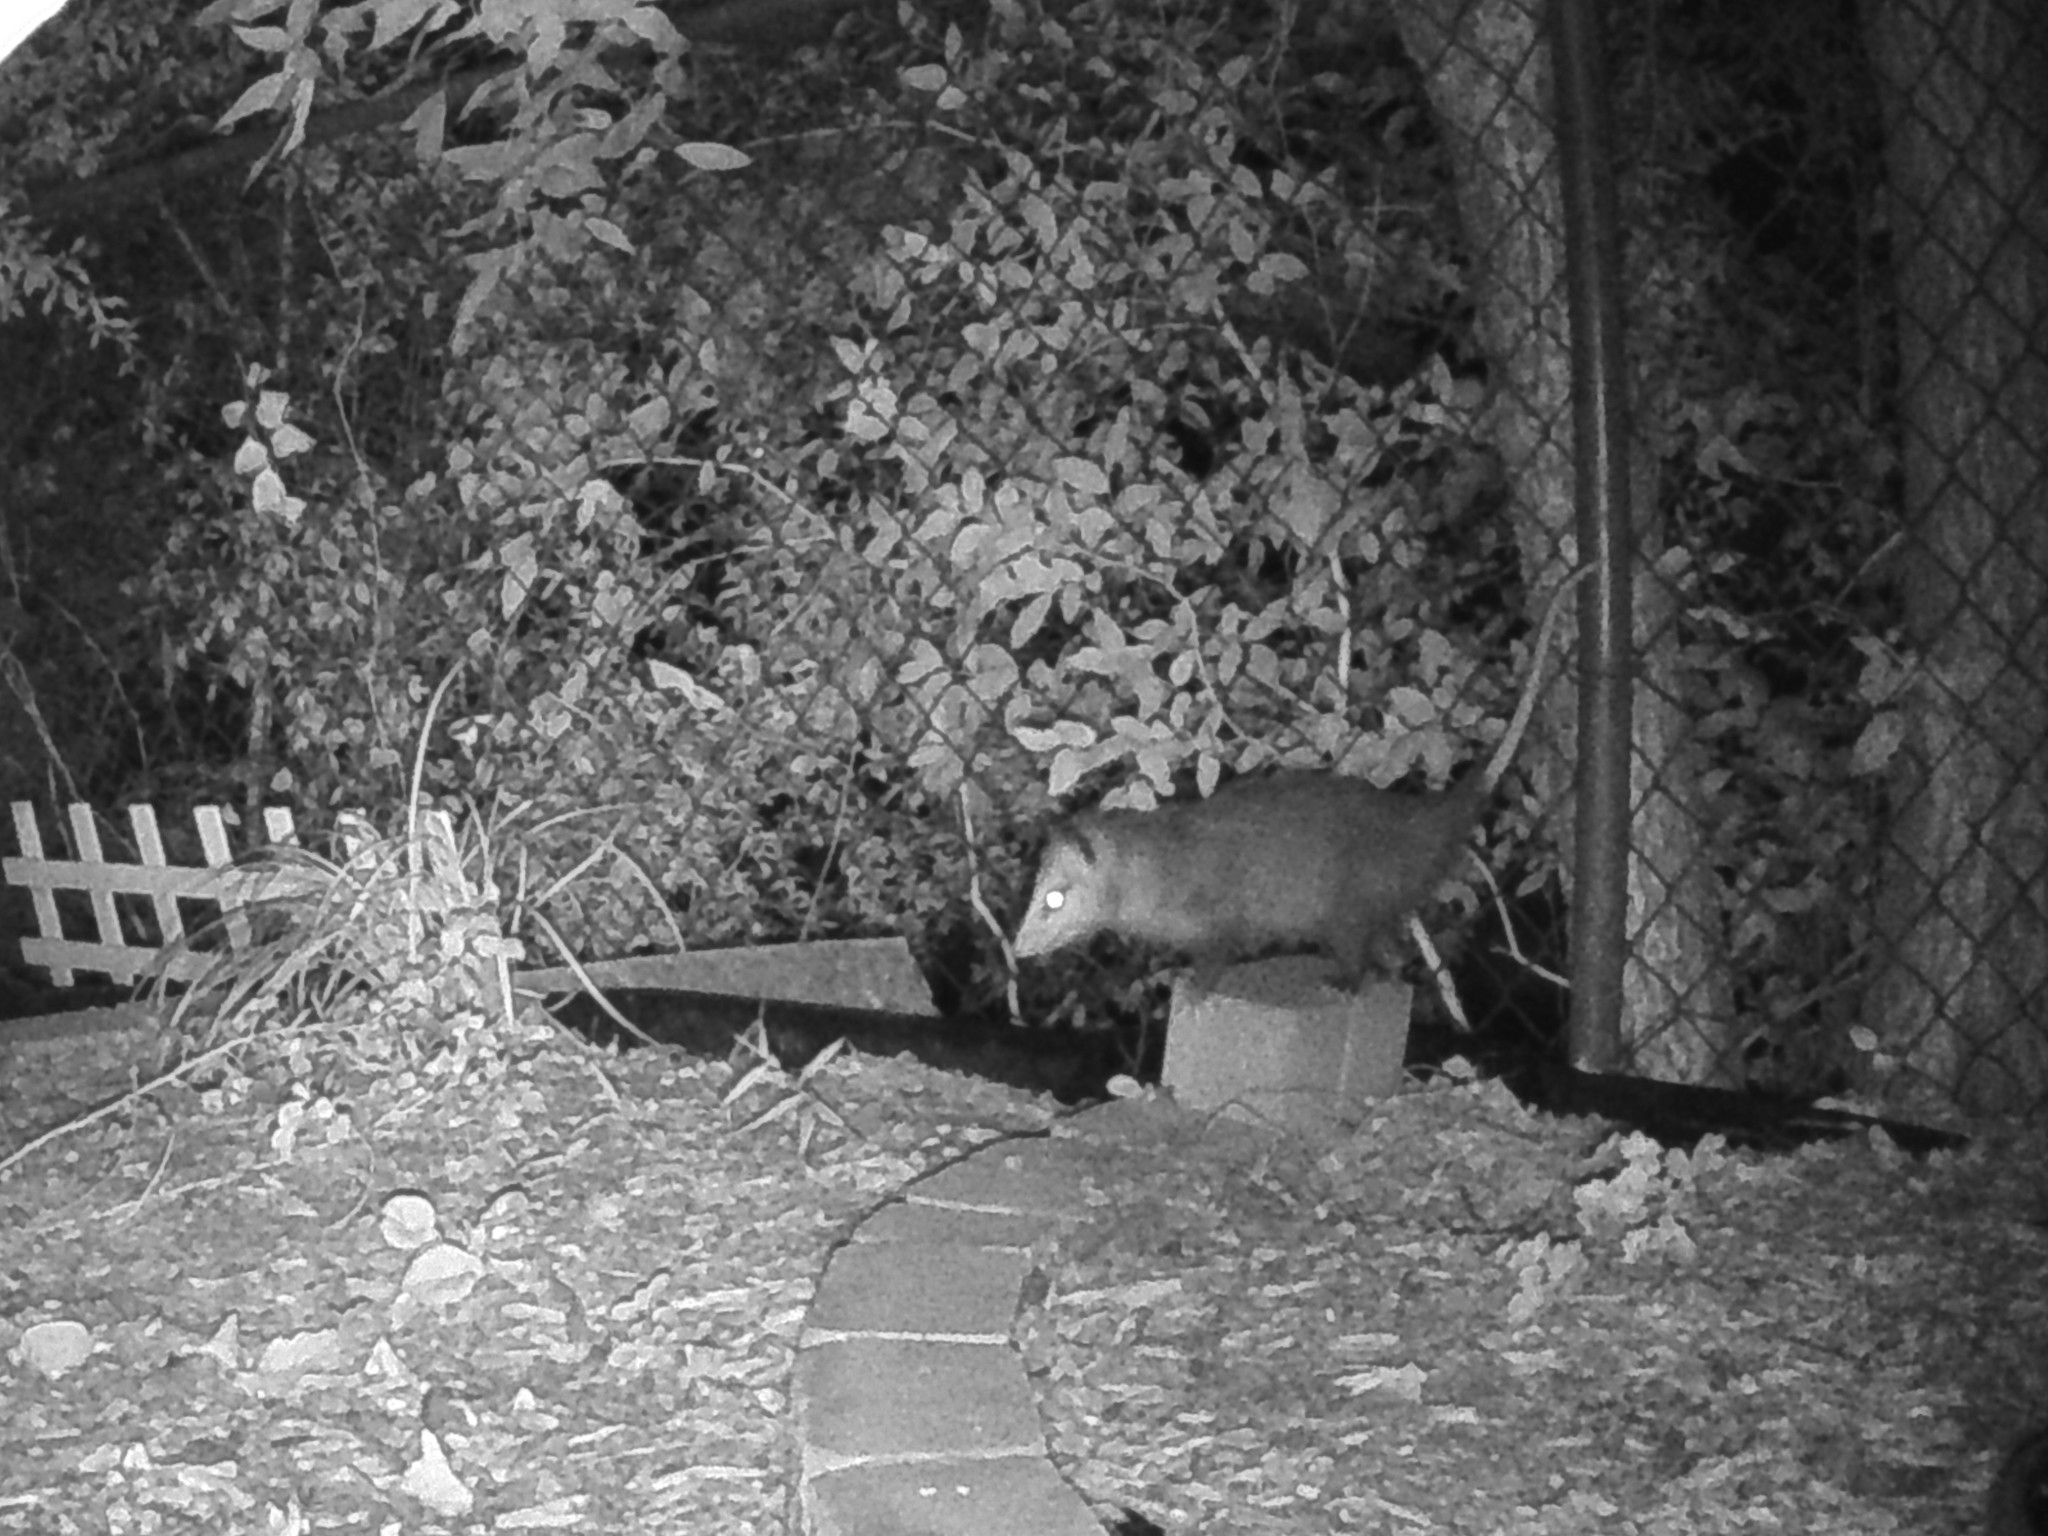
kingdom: Animalia
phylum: Chordata
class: Mammalia
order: Didelphimorphia
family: Didelphidae
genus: Didelphis
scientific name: Didelphis virginiana
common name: Virginia opossum
